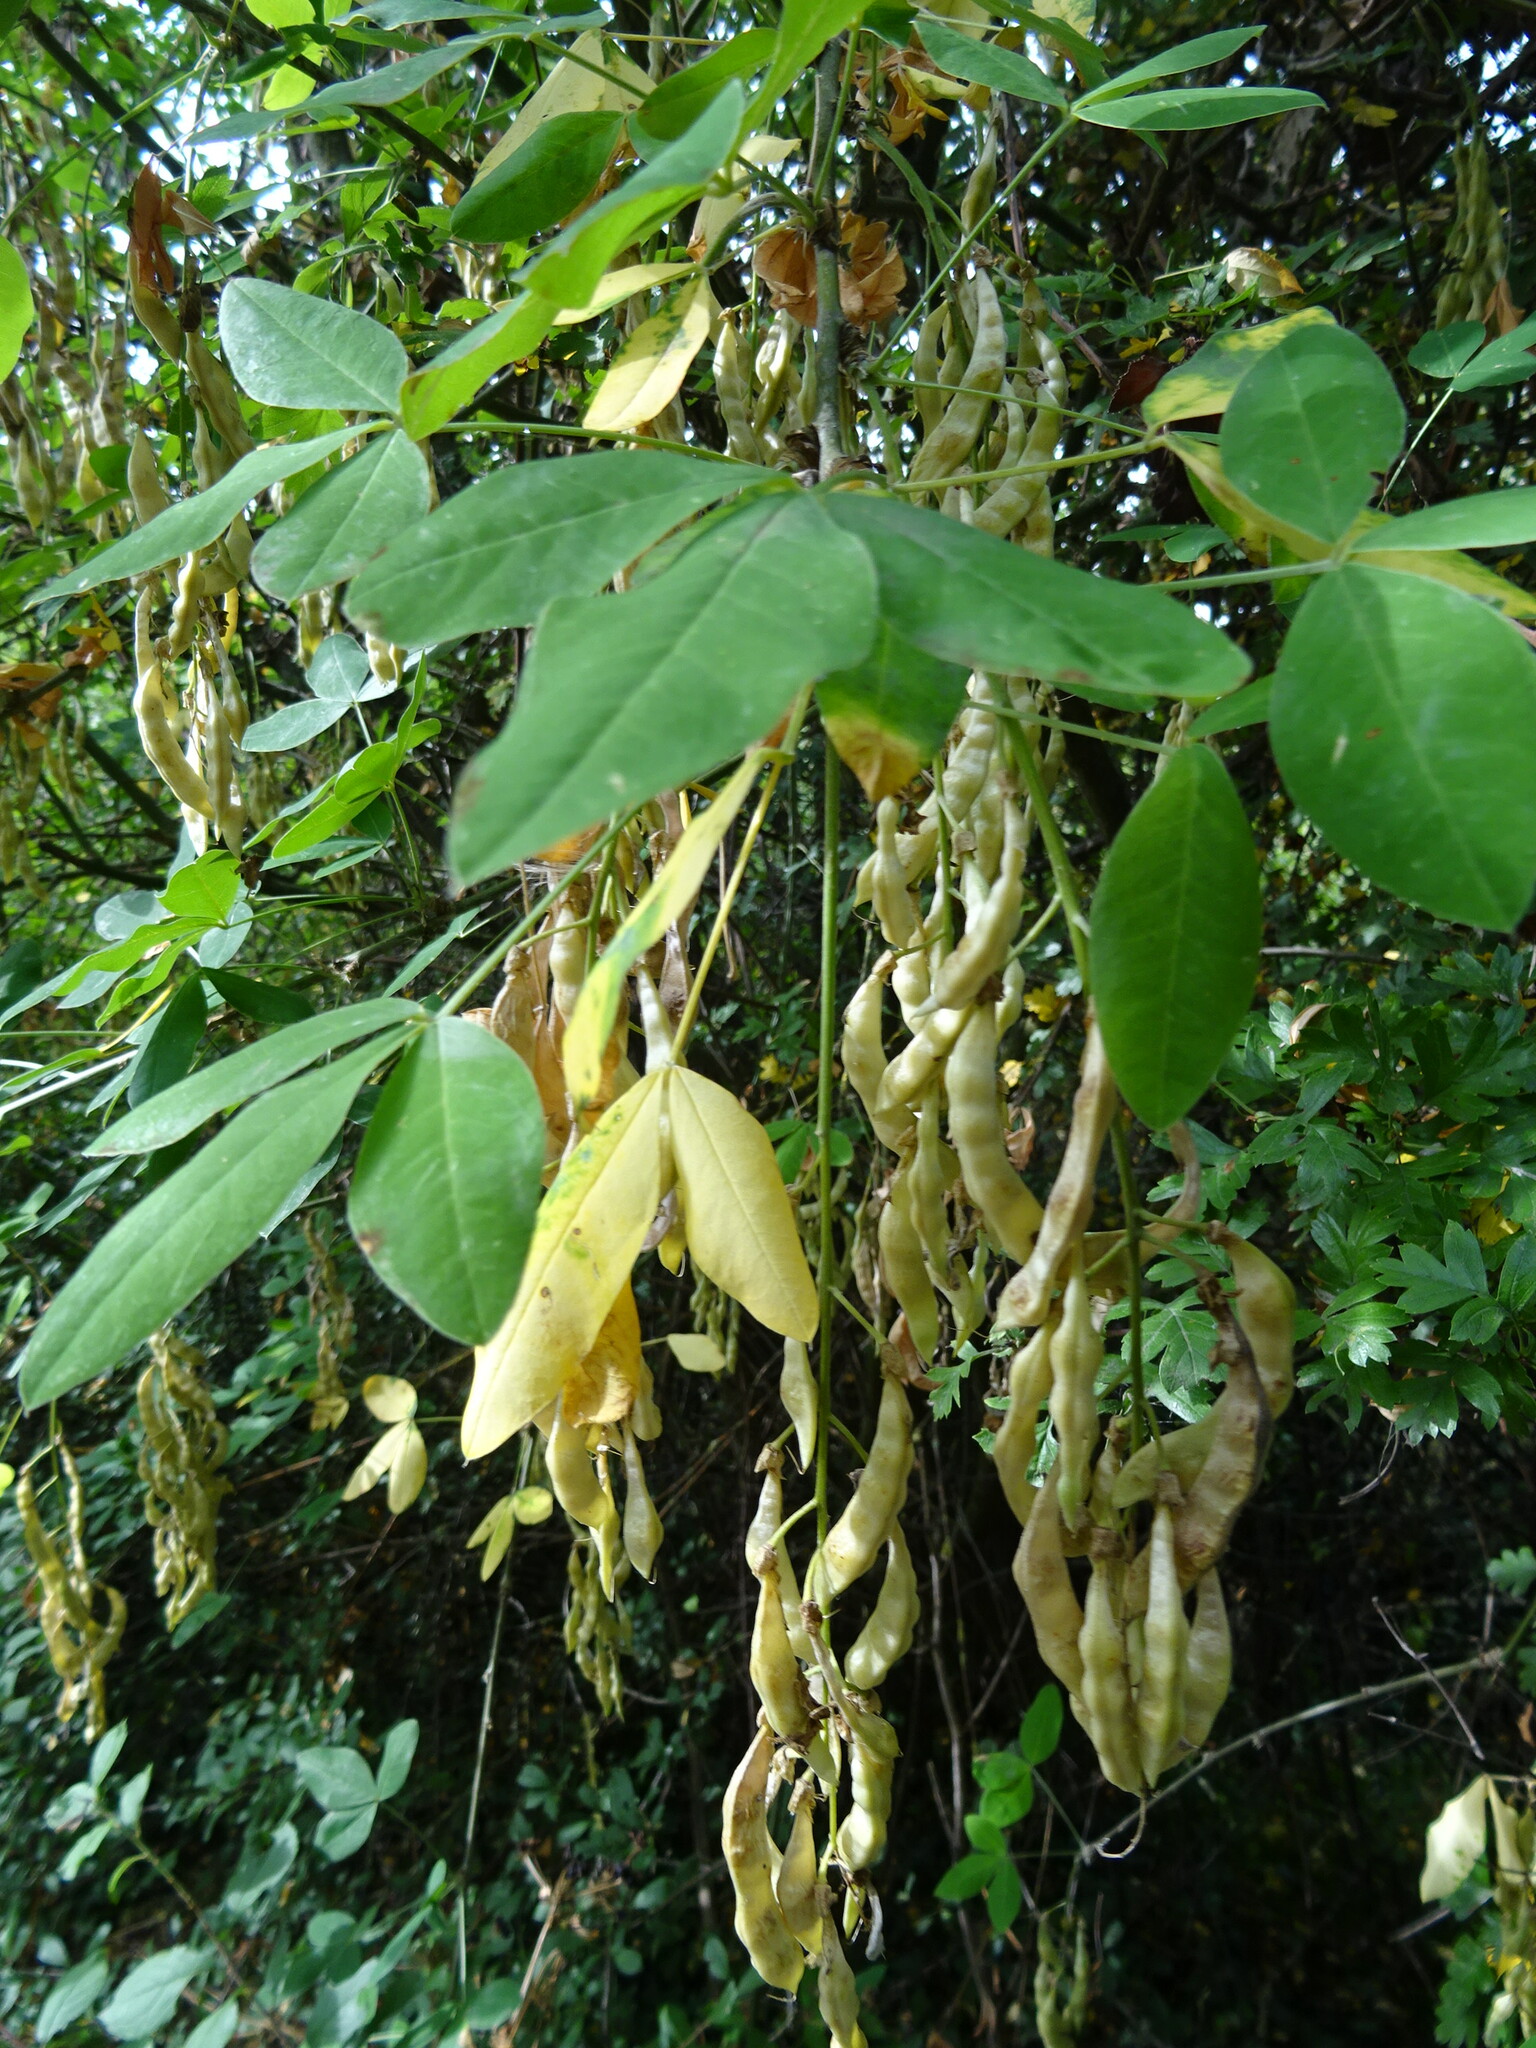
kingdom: Plantae
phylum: Tracheophyta
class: Magnoliopsida
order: Fabales
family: Fabaceae
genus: Laburnum
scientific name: Laburnum anagyroides
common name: Laburnum
